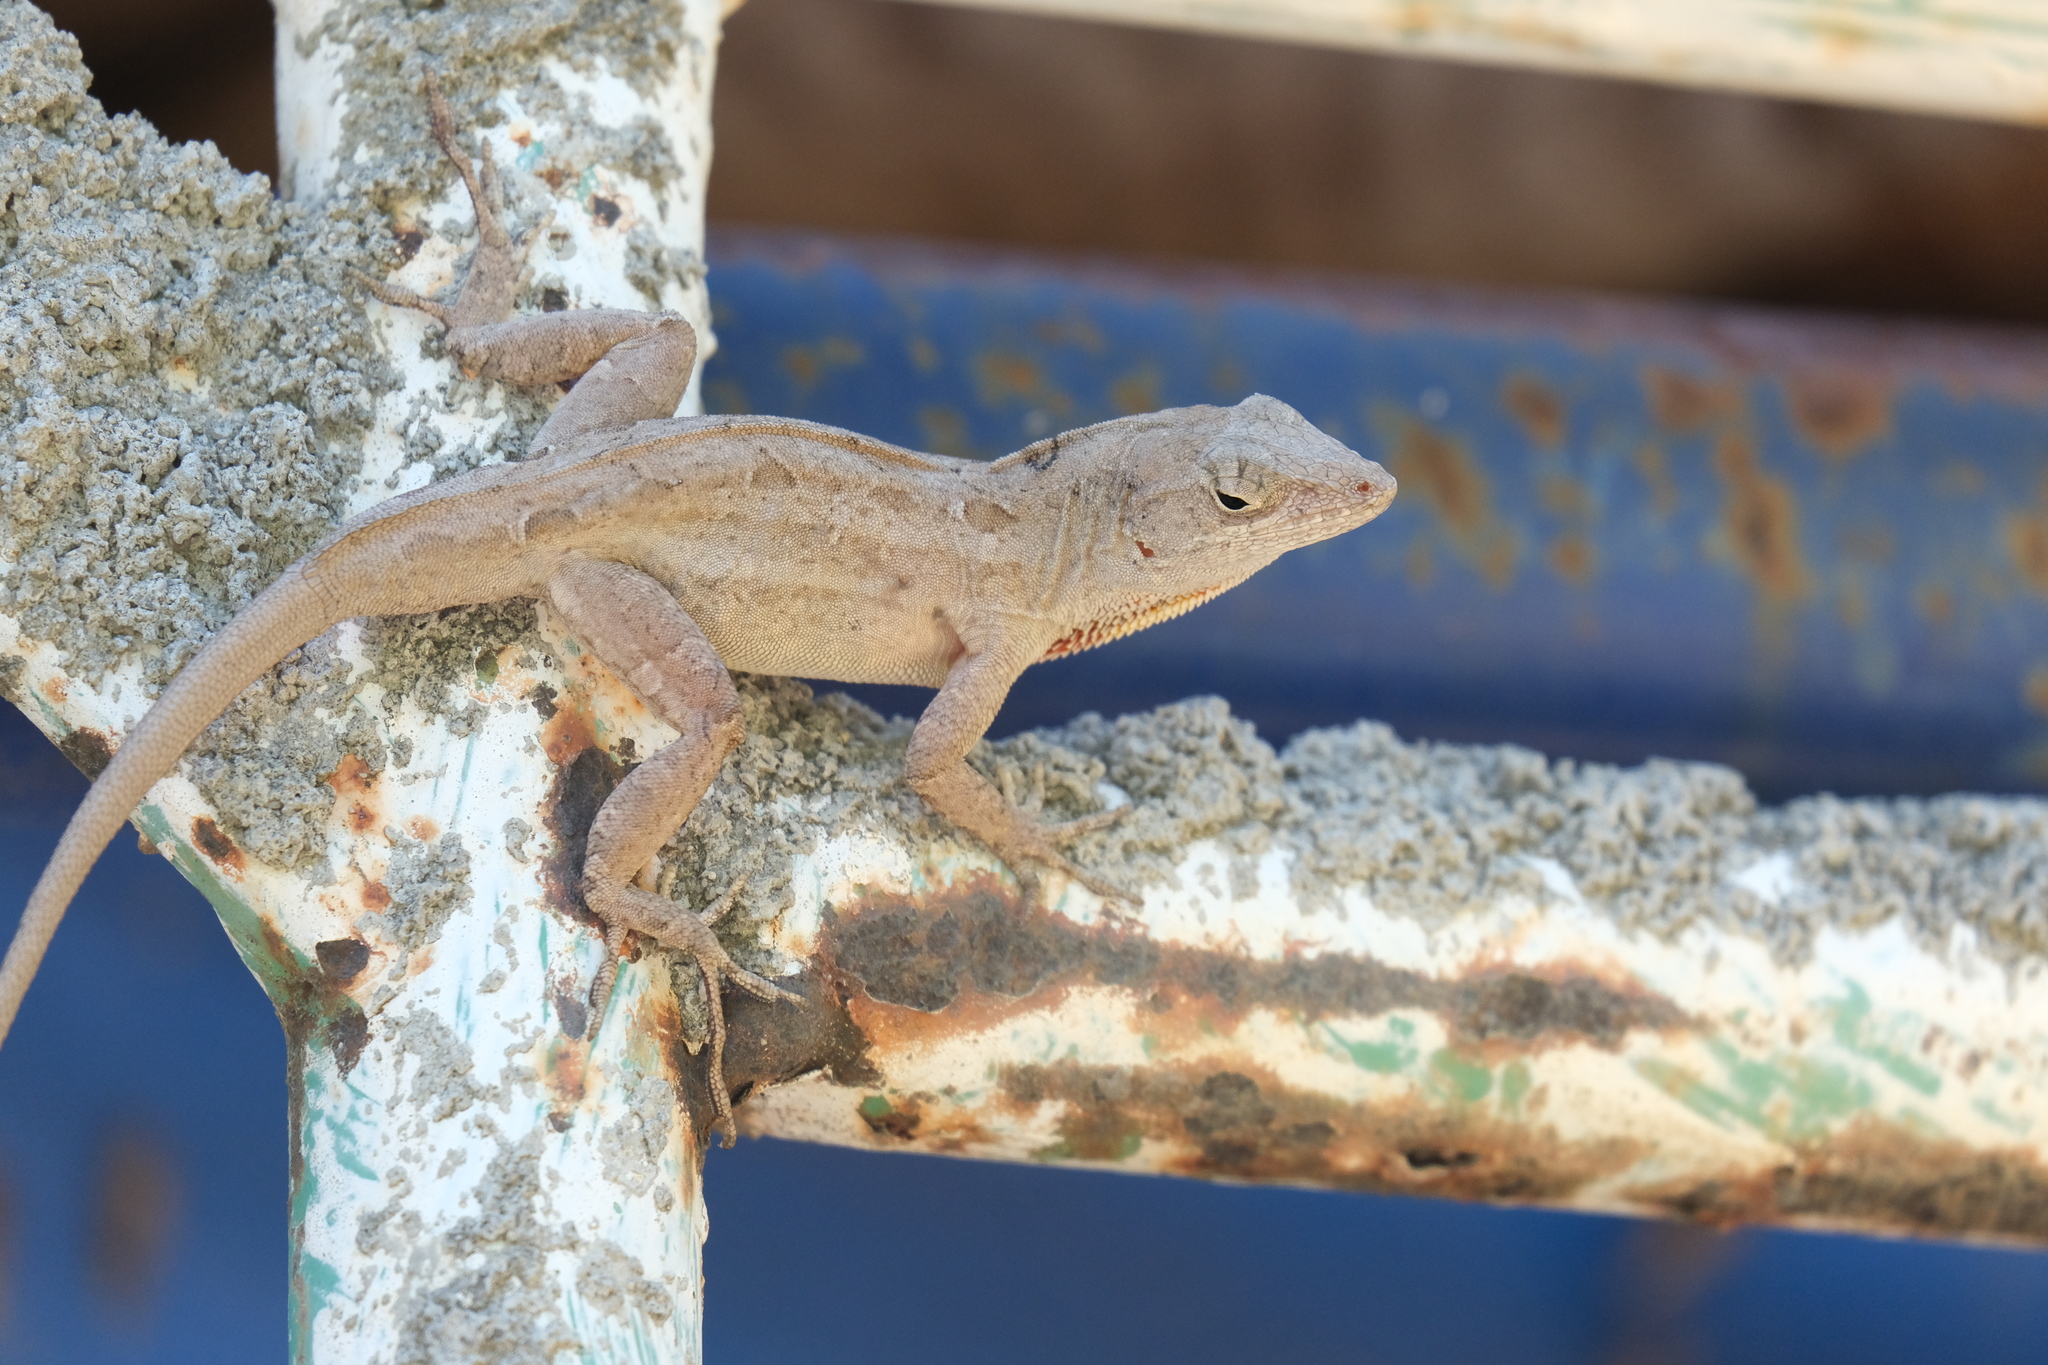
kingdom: Animalia
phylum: Chordata
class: Squamata
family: Dactyloidae
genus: Anolis
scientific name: Anolis sagrei
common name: Brown anole
